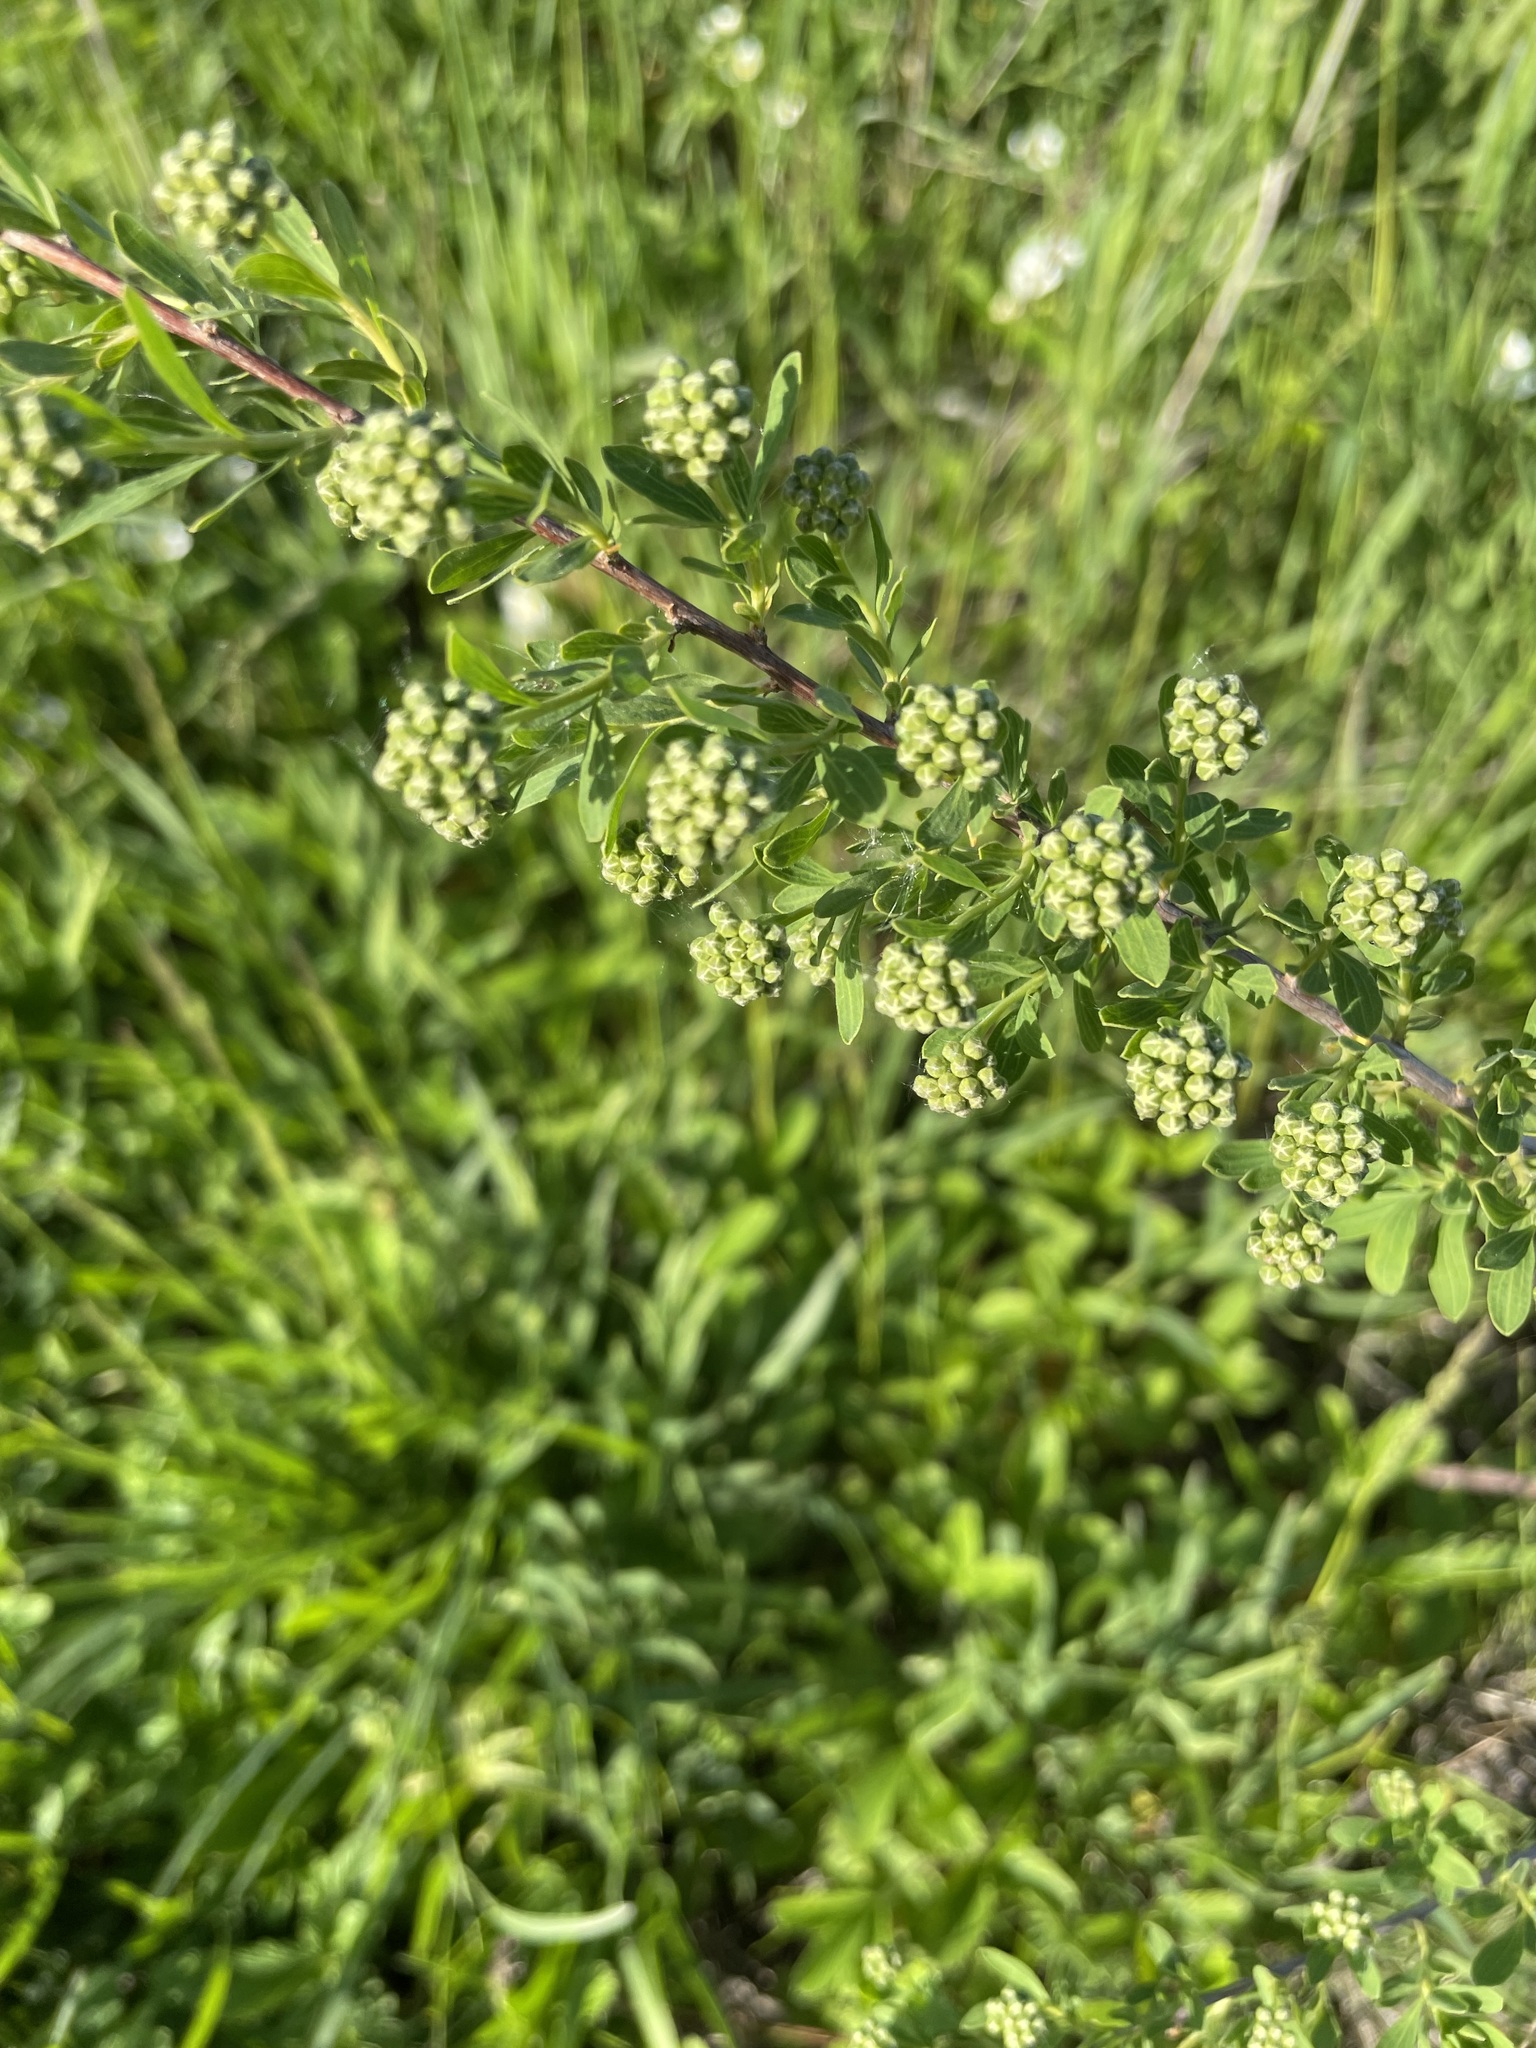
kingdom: Plantae
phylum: Tracheophyta
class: Magnoliopsida
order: Rosales
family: Rosaceae
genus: Spiraea
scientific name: Spiraea crenata
